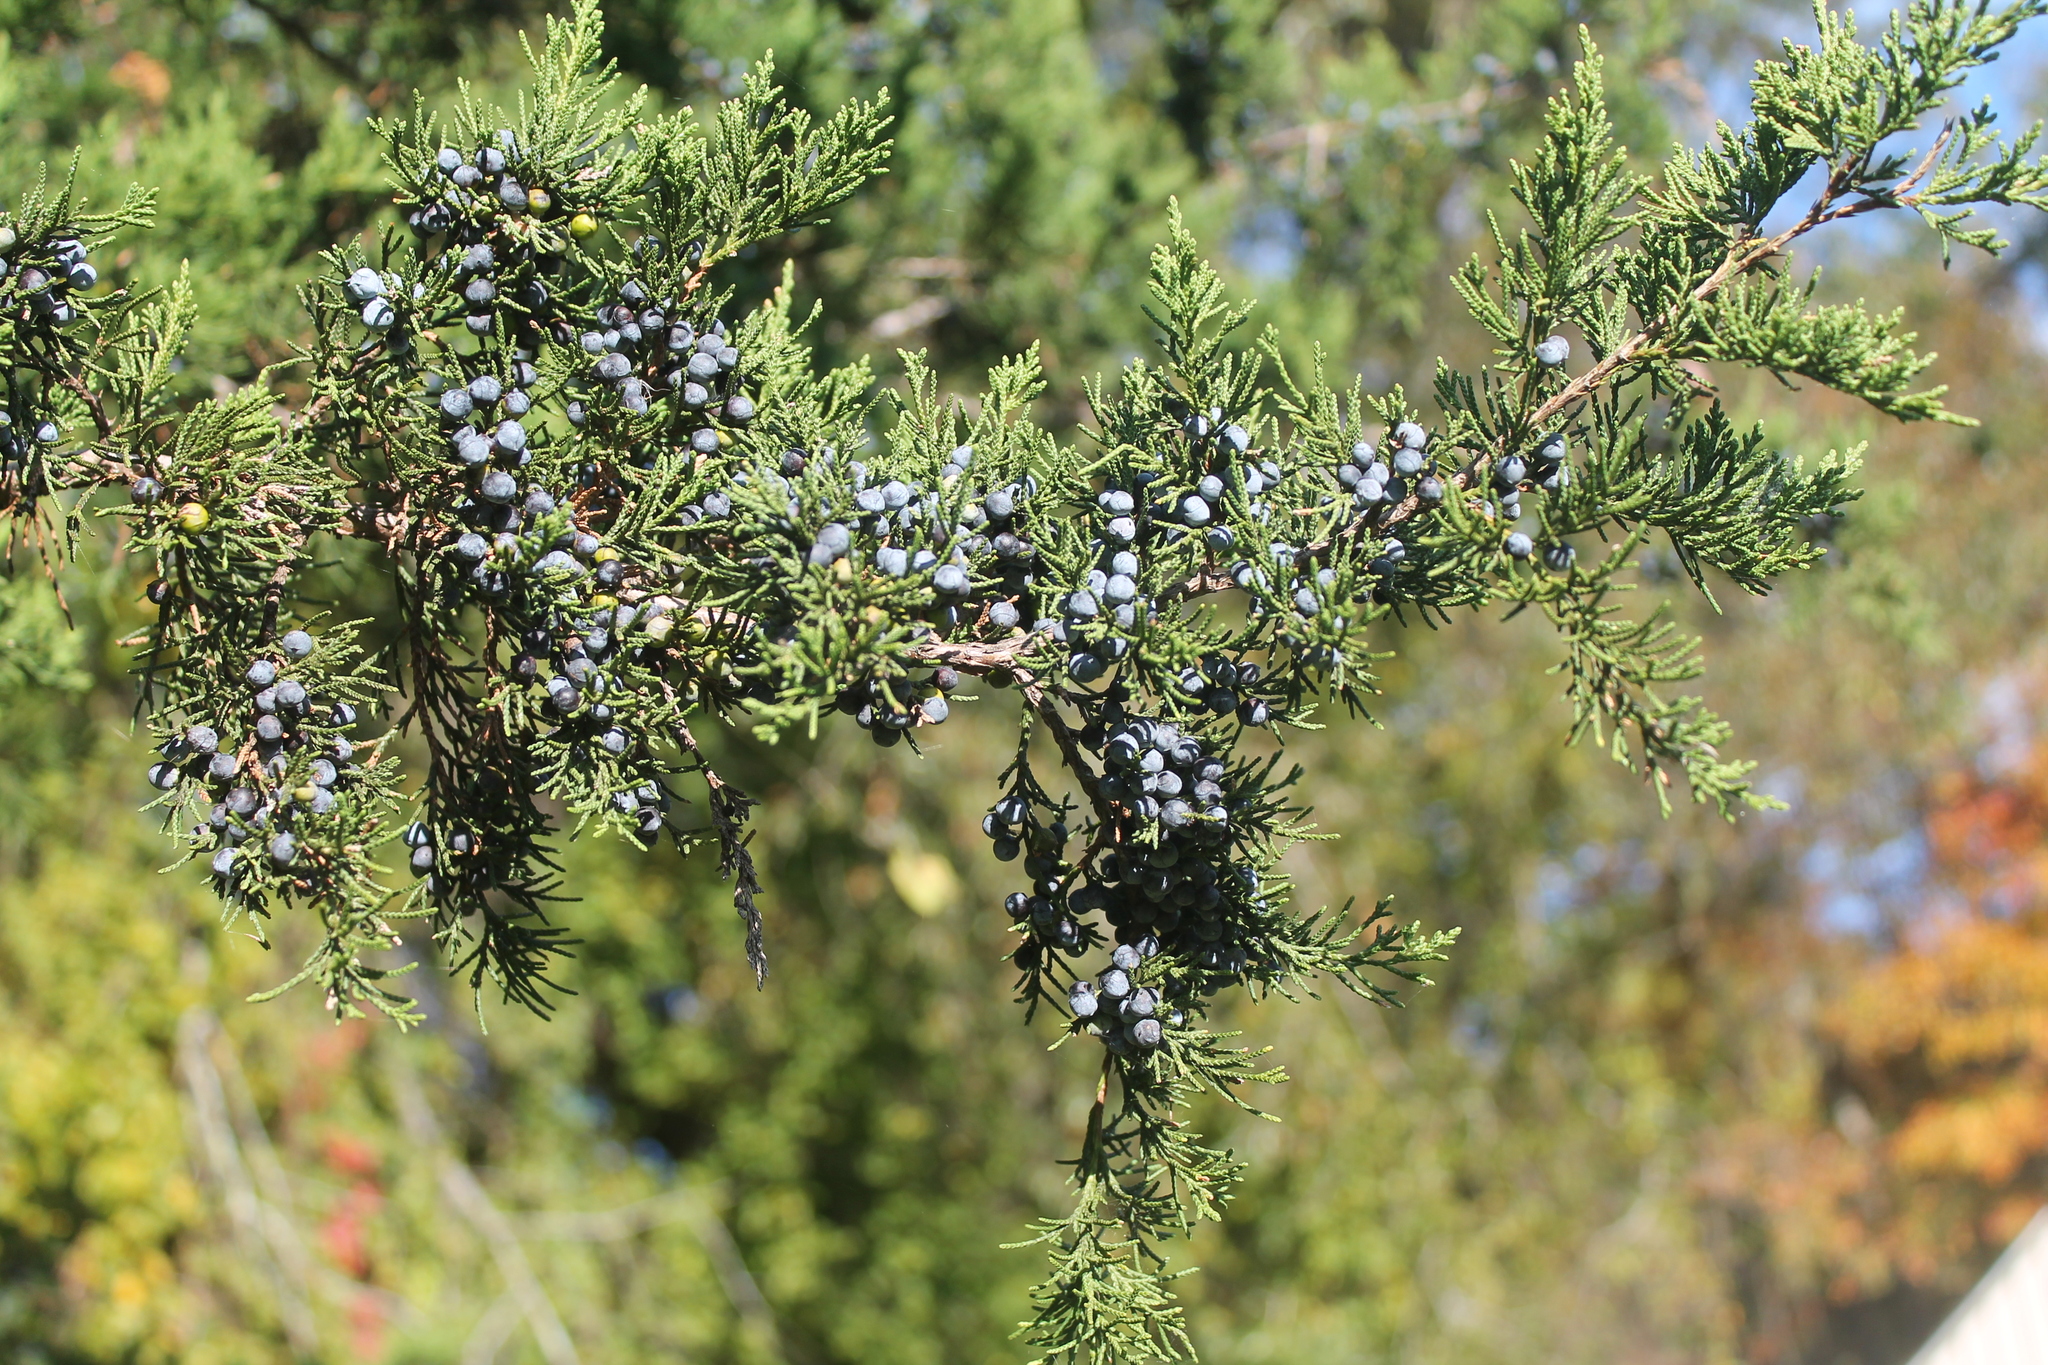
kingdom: Plantae
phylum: Tracheophyta
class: Pinopsida
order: Pinales
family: Cupressaceae
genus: Juniperus
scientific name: Juniperus virginiana
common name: Red juniper
